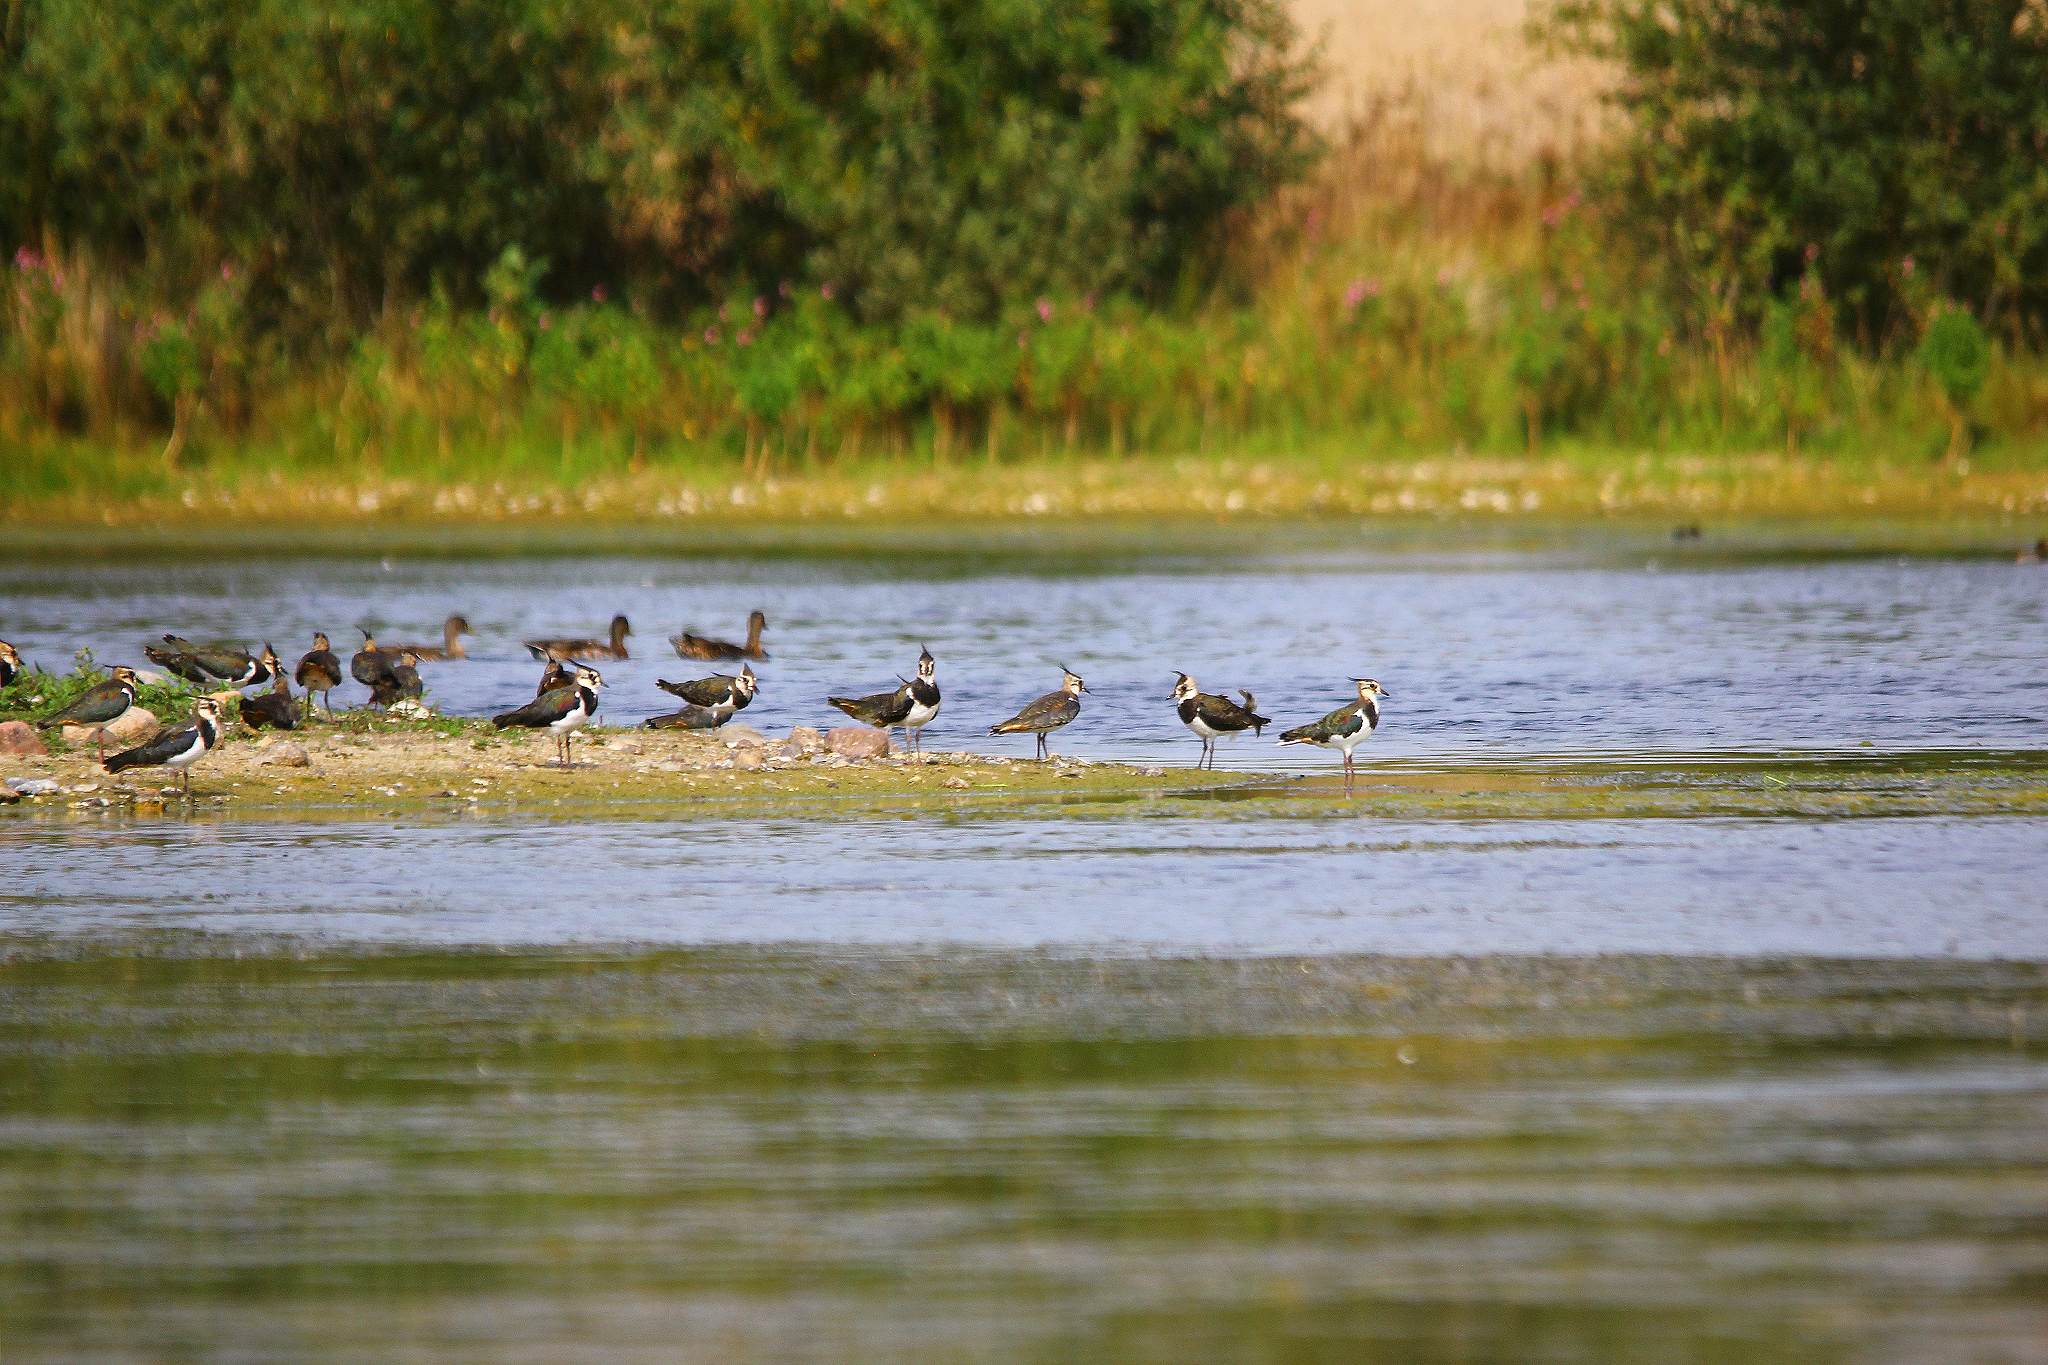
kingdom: Animalia
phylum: Chordata
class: Aves
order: Charadriiformes
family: Charadriidae
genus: Vanellus
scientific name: Vanellus vanellus
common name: Northern lapwing
